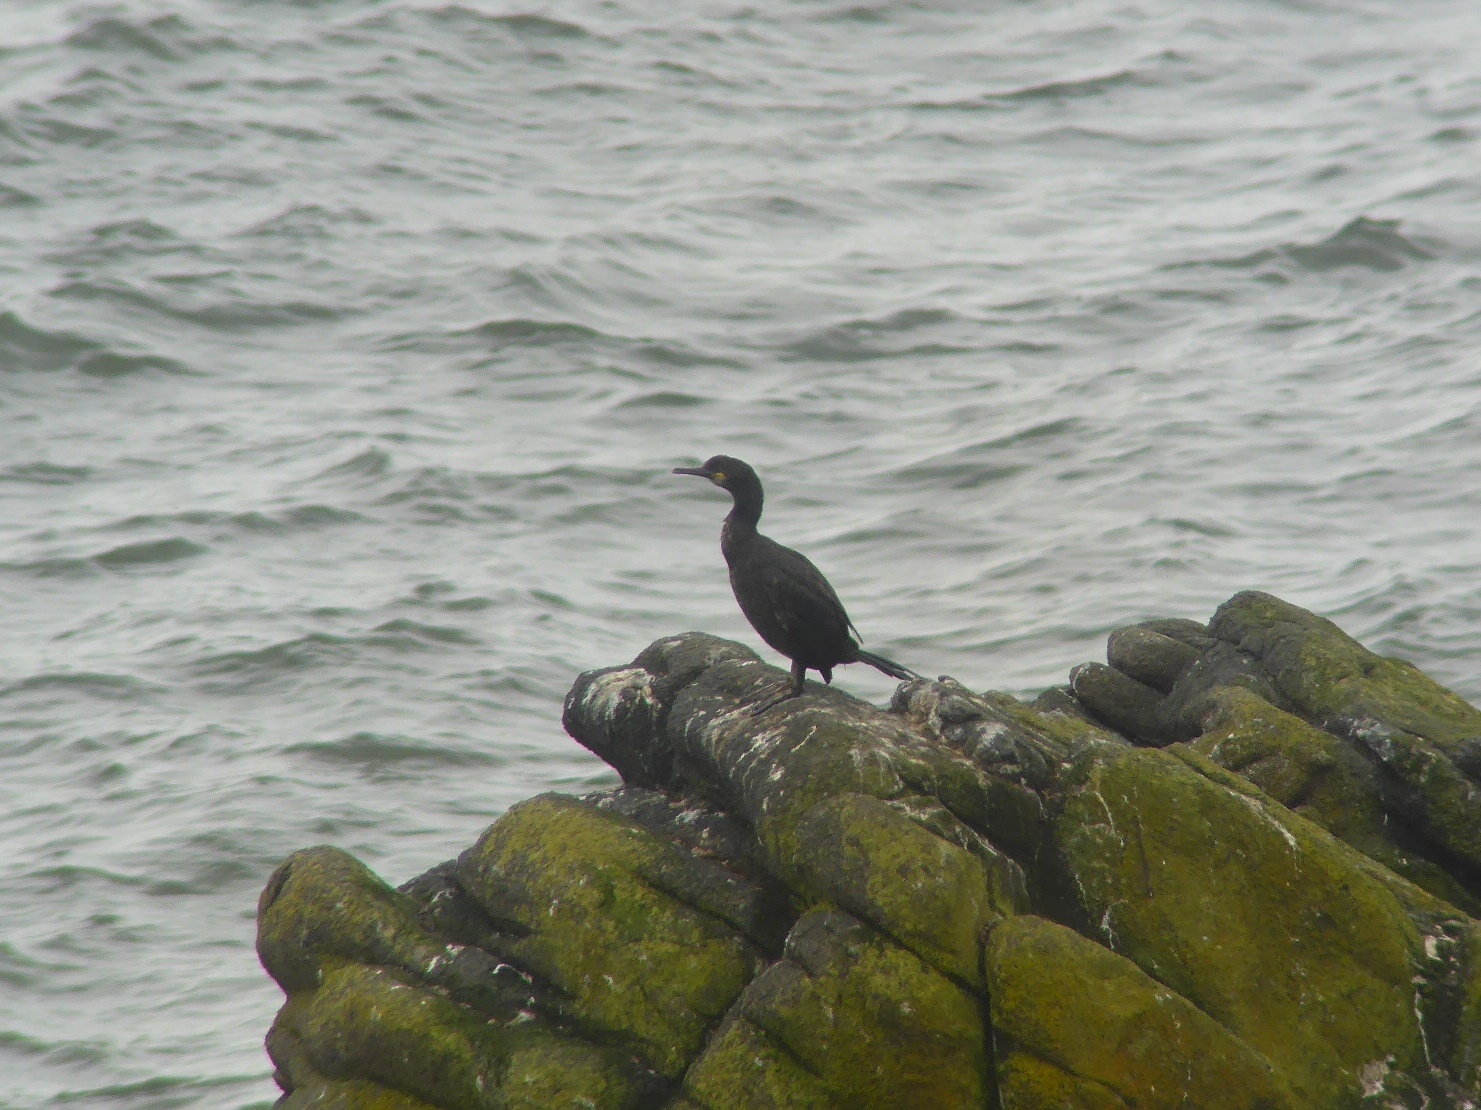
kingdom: Animalia
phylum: Chordata
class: Aves
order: Suliformes
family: Phalacrocoracidae
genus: Phalacrocorax
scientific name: Phalacrocorax aristotelis
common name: European shag
